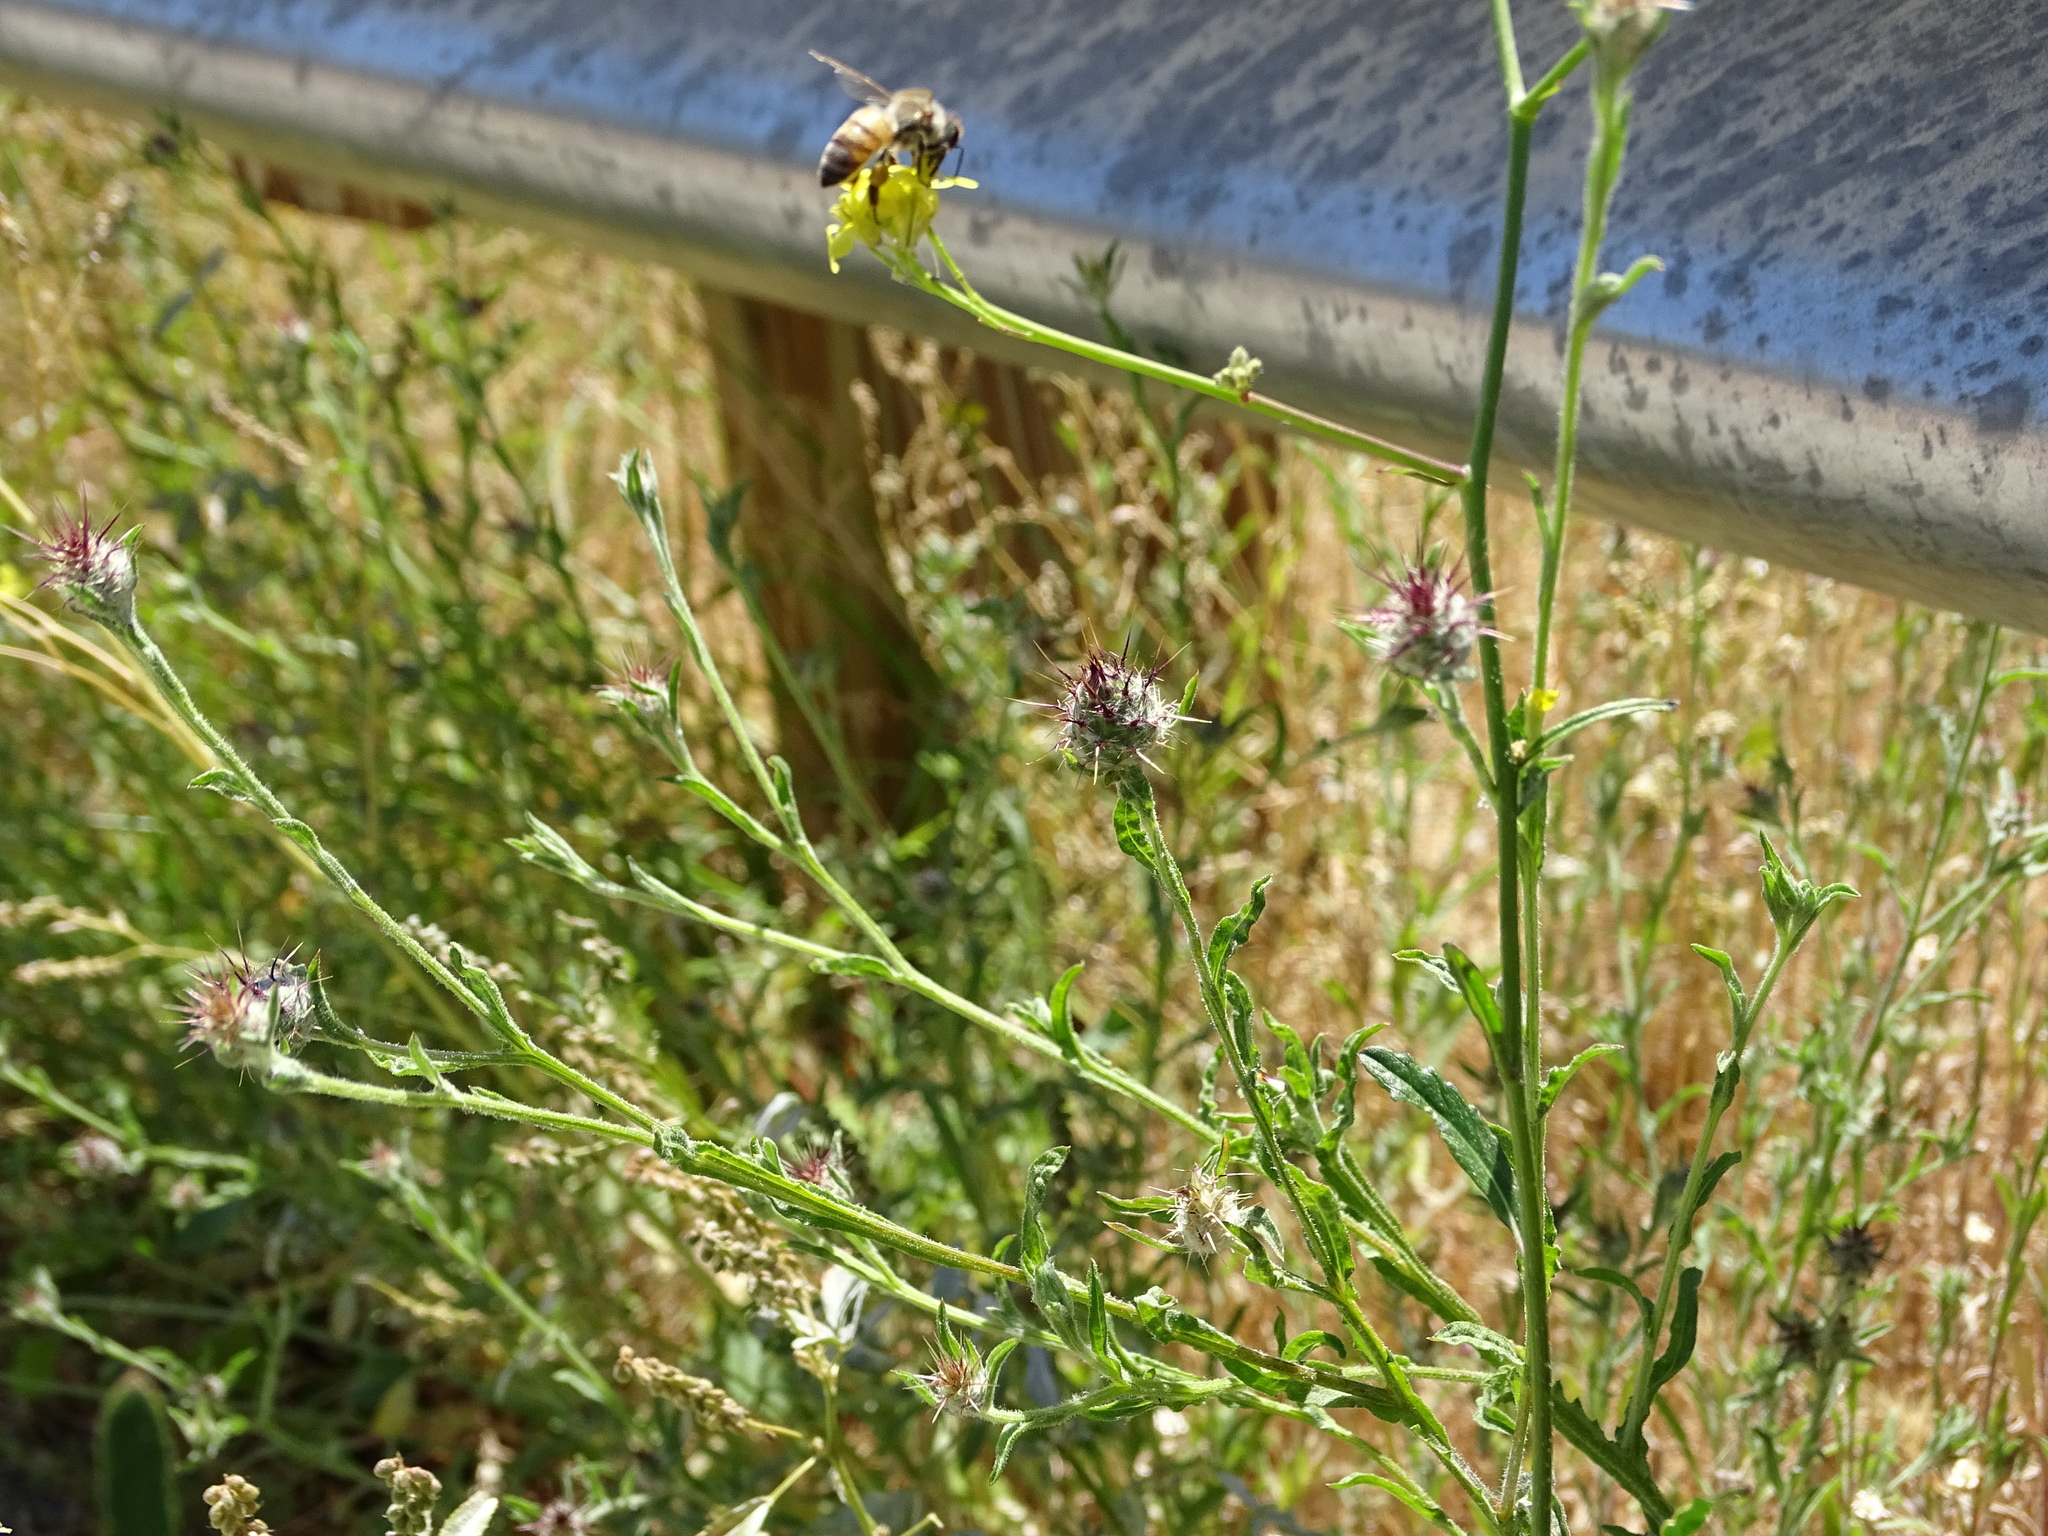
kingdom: Plantae
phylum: Tracheophyta
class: Magnoliopsida
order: Asterales
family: Asteraceae
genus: Centaurea
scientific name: Centaurea melitensis
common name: Maltese star-thistle
